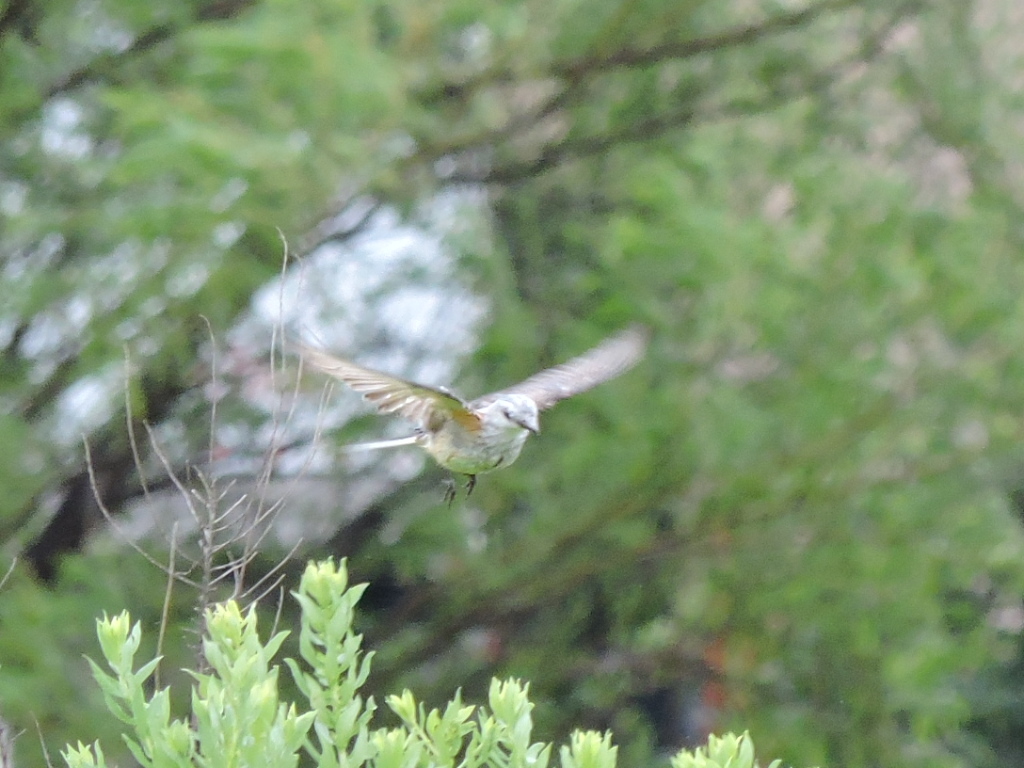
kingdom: Animalia
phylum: Chordata
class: Aves
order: Passeriformes
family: Tyrannidae
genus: Tyrannus
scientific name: Tyrannus forficatus
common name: Scissor-tailed flycatcher
